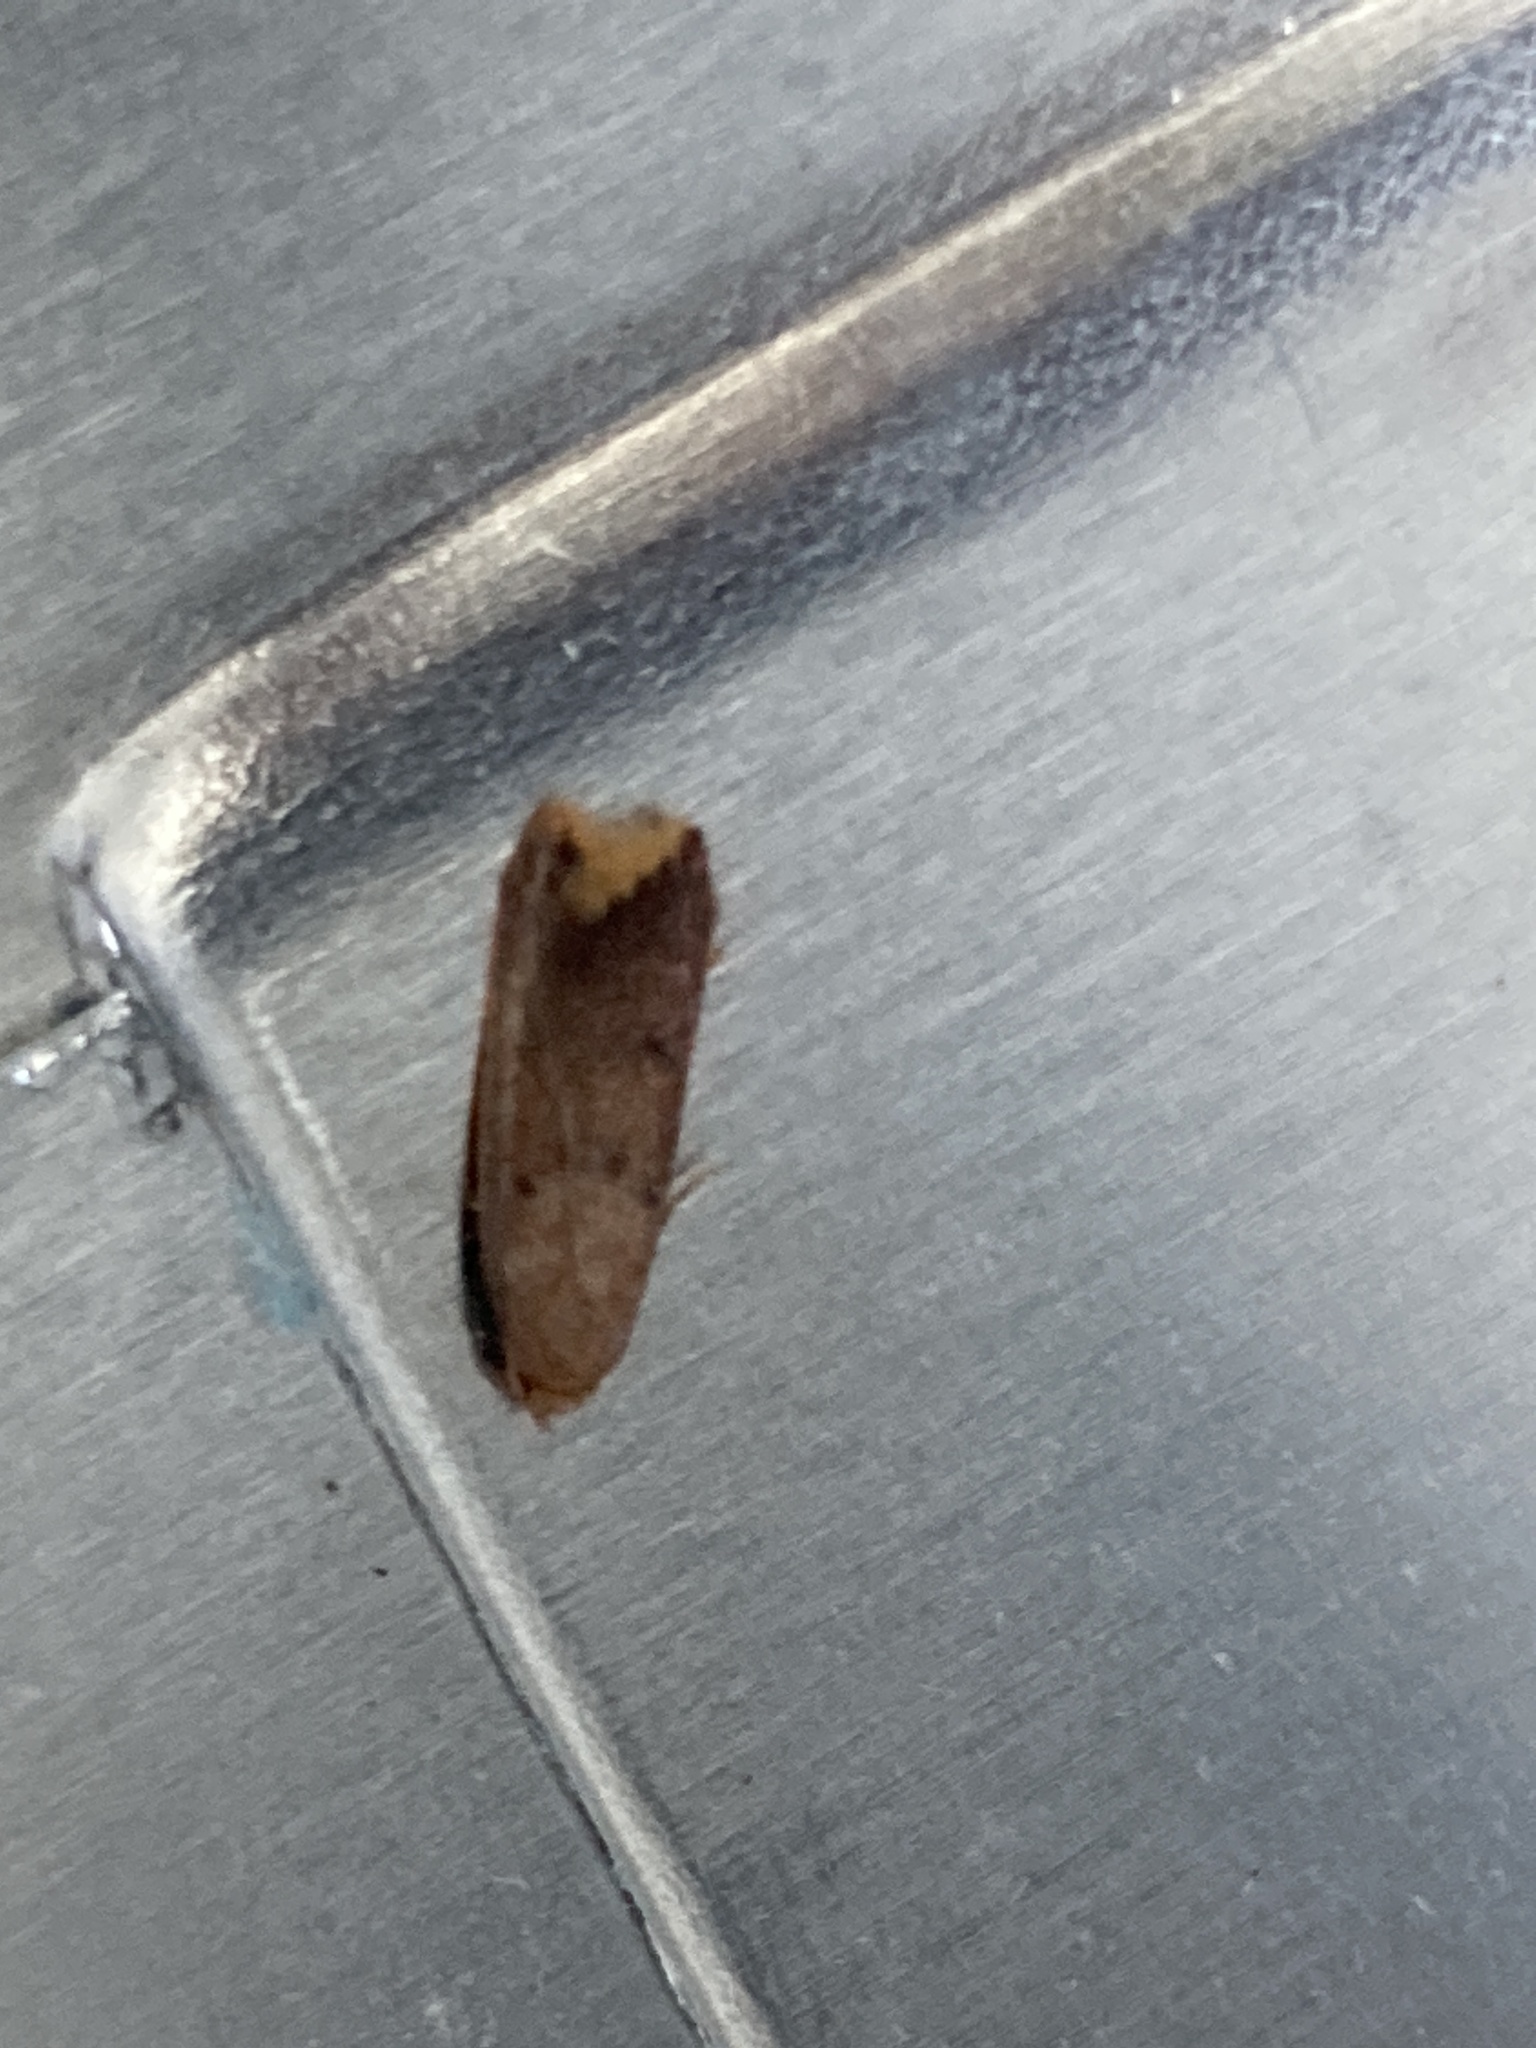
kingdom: Animalia
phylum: Arthropoda
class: Insecta
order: Lepidoptera
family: Oecophoridae
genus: Tachystola
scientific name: Tachystola acroxantha
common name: Ruddy streak
